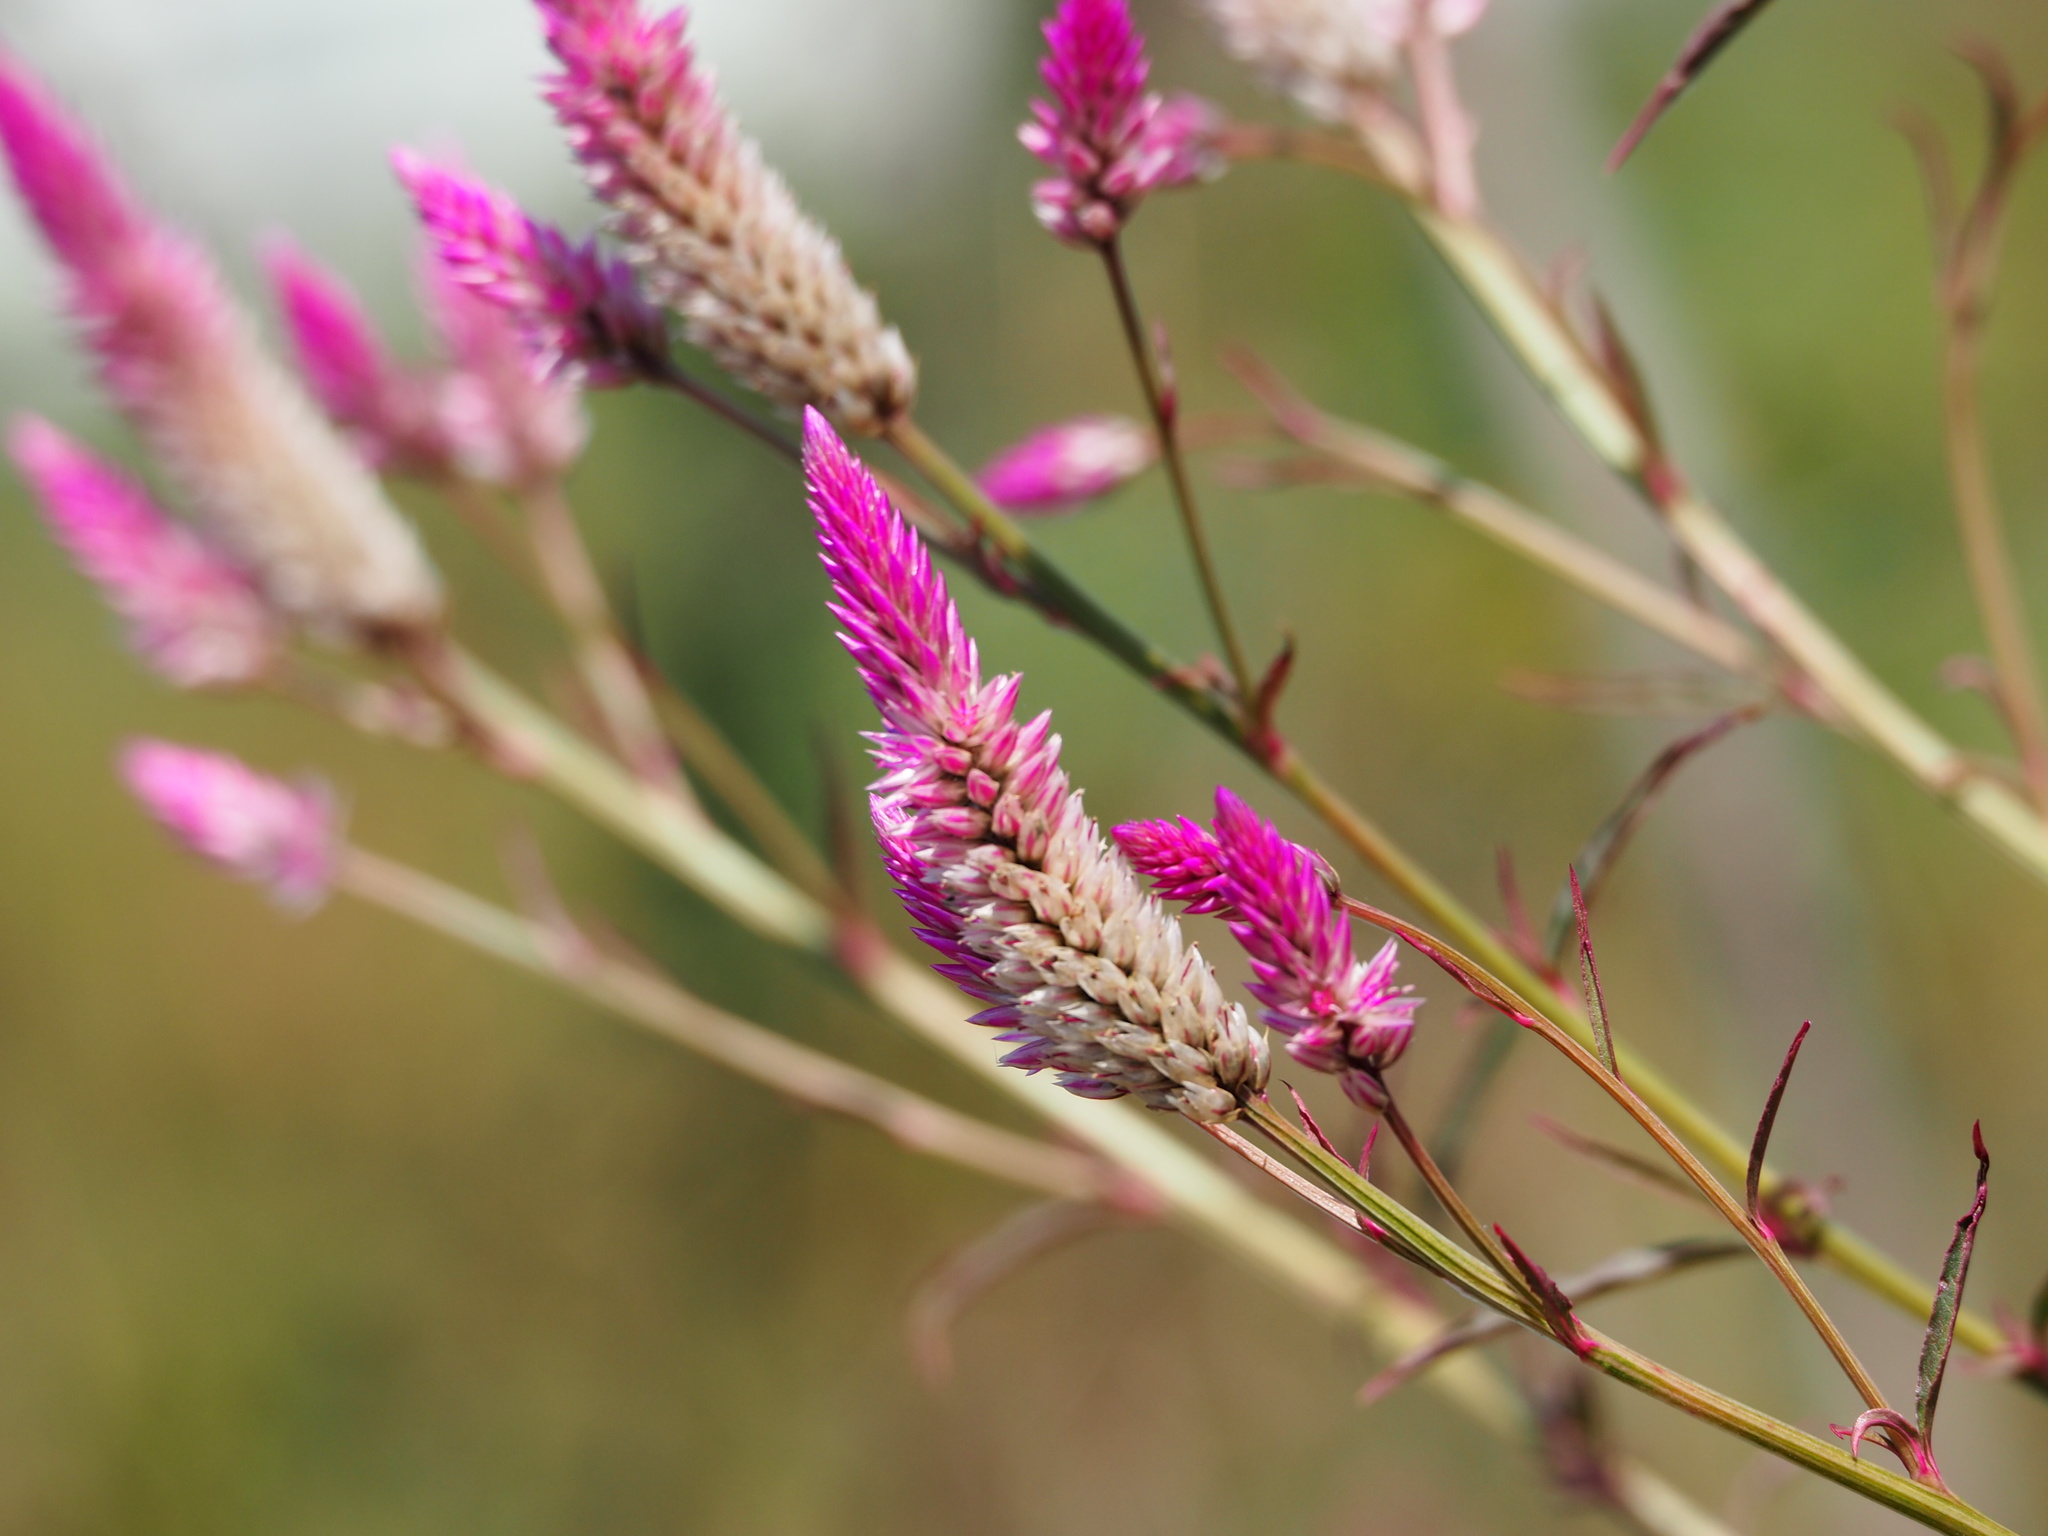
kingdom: Plantae
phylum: Tracheophyta
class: Magnoliopsida
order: Caryophyllales
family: Amaranthaceae
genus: Celosia
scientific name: Celosia argentea
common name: Feather cockscomb
